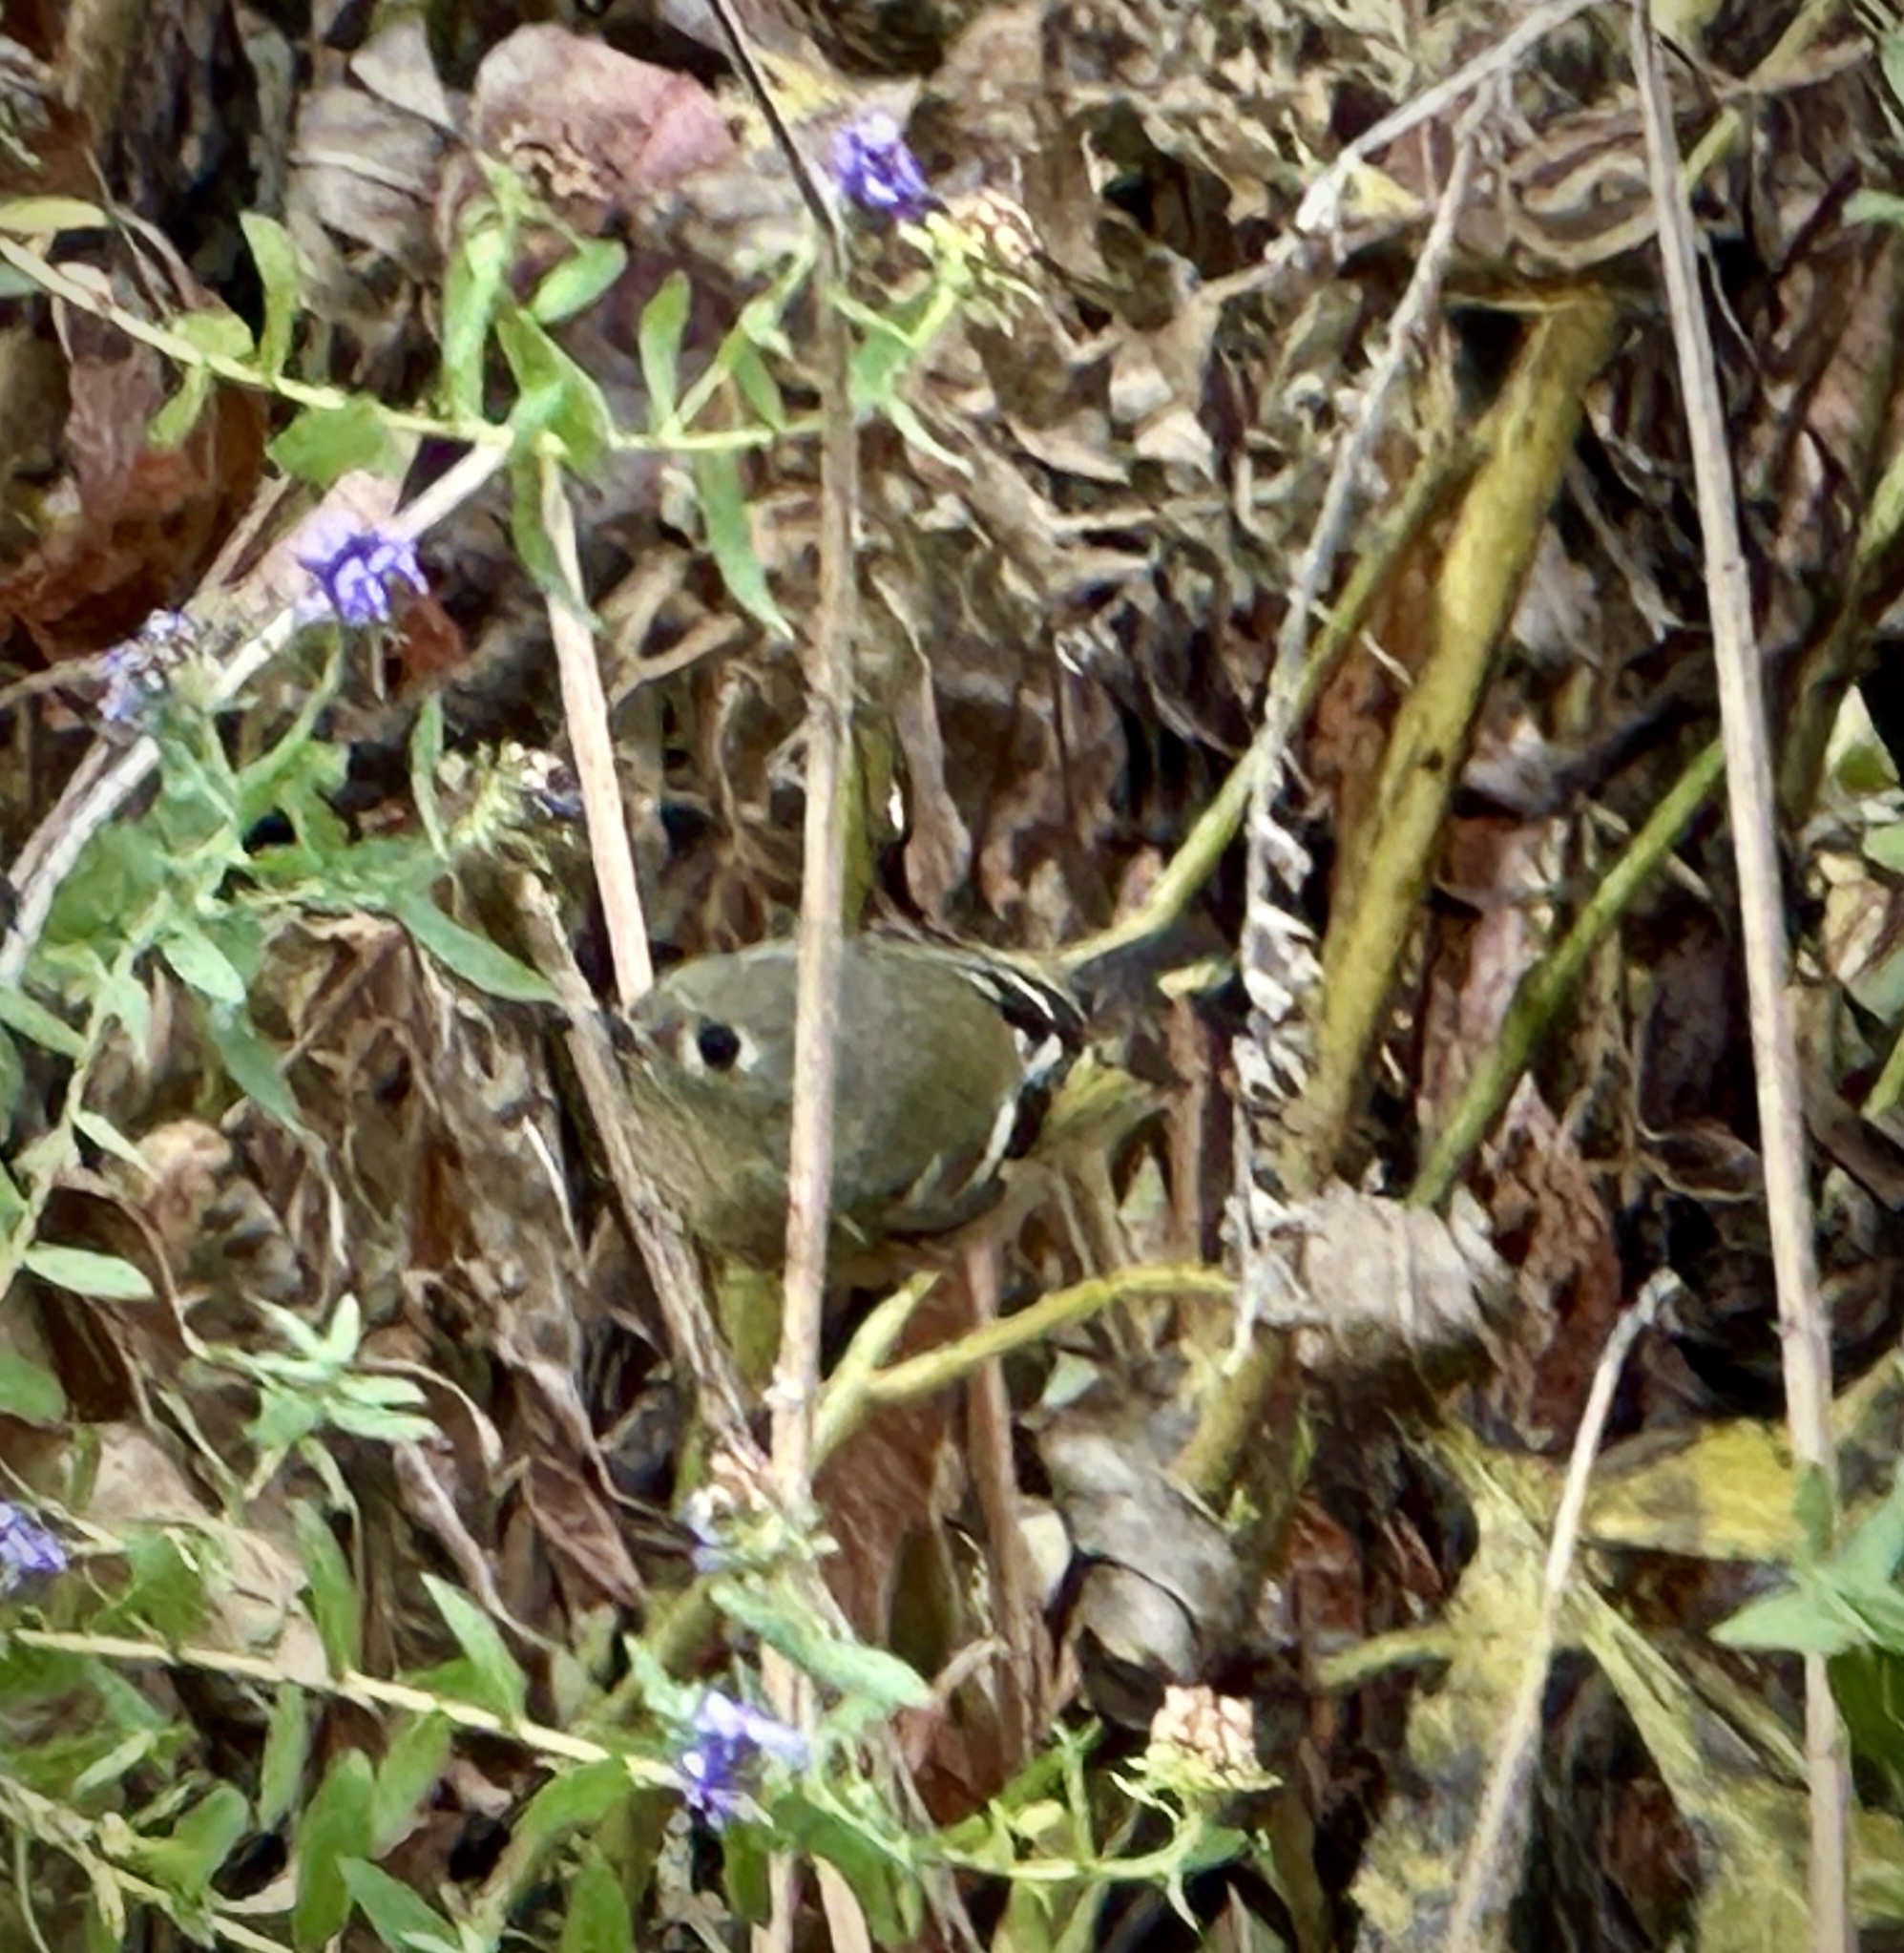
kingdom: Animalia
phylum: Chordata
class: Aves
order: Passeriformes
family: Regulidae
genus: Regulus
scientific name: Regulus calendula
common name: Ruby-crowned kinglet
